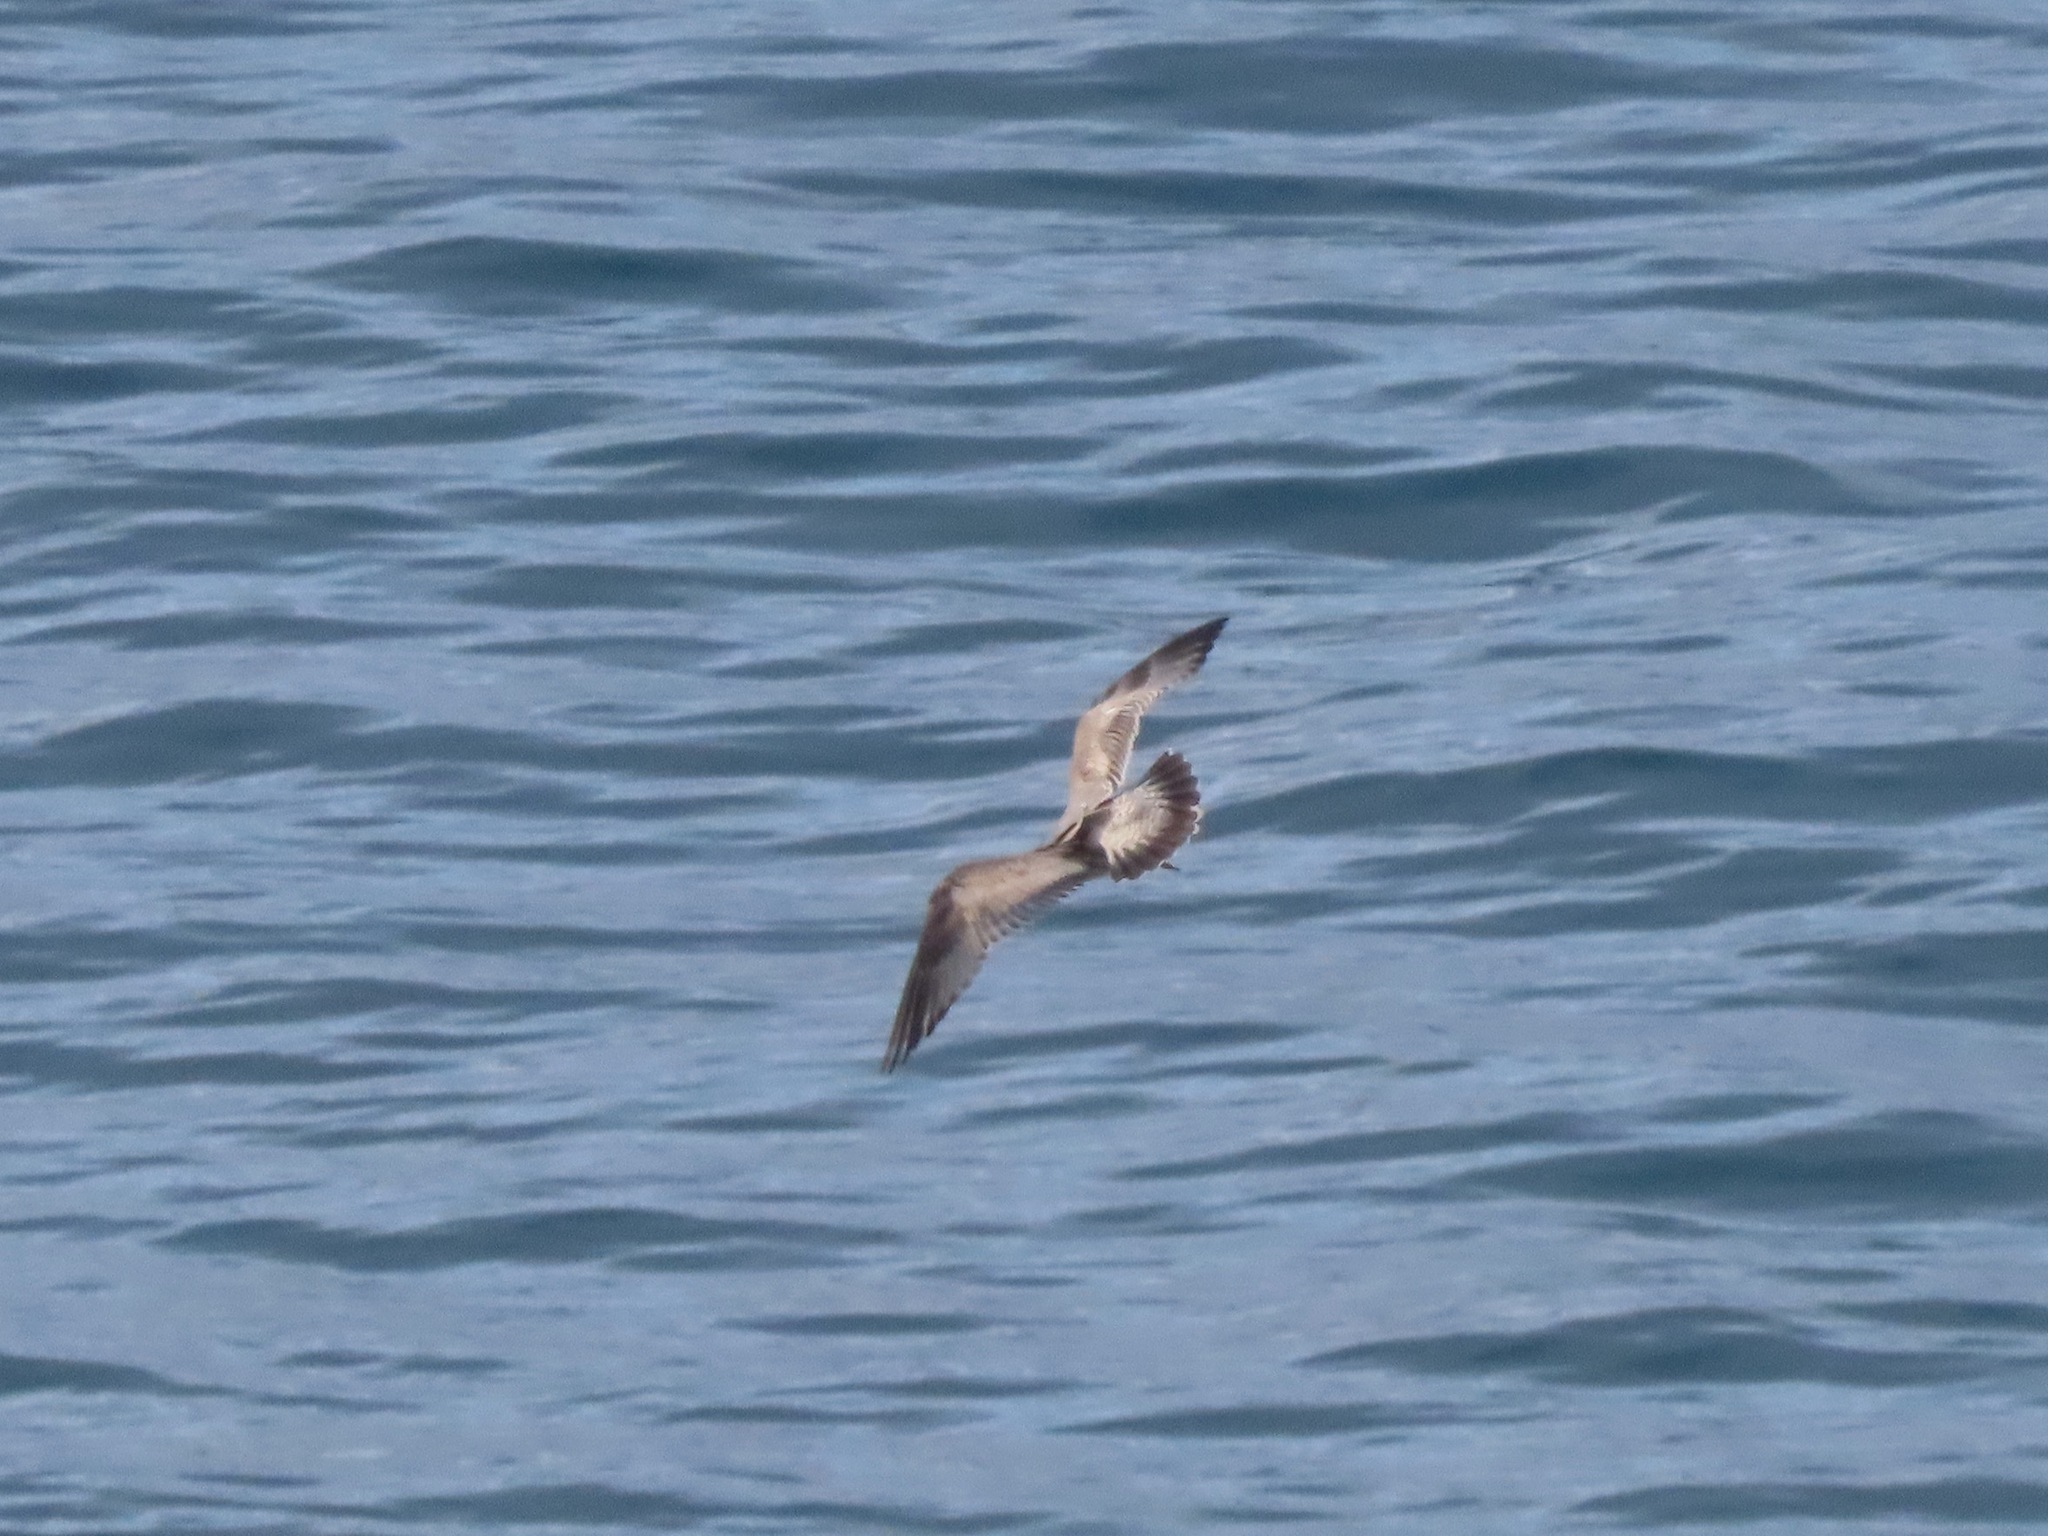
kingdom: Animalia
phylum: Chordata
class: Aves
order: Charadriiformes
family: Laridae
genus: Larus
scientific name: Larus brachyrhynchus
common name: Short-billed gull
